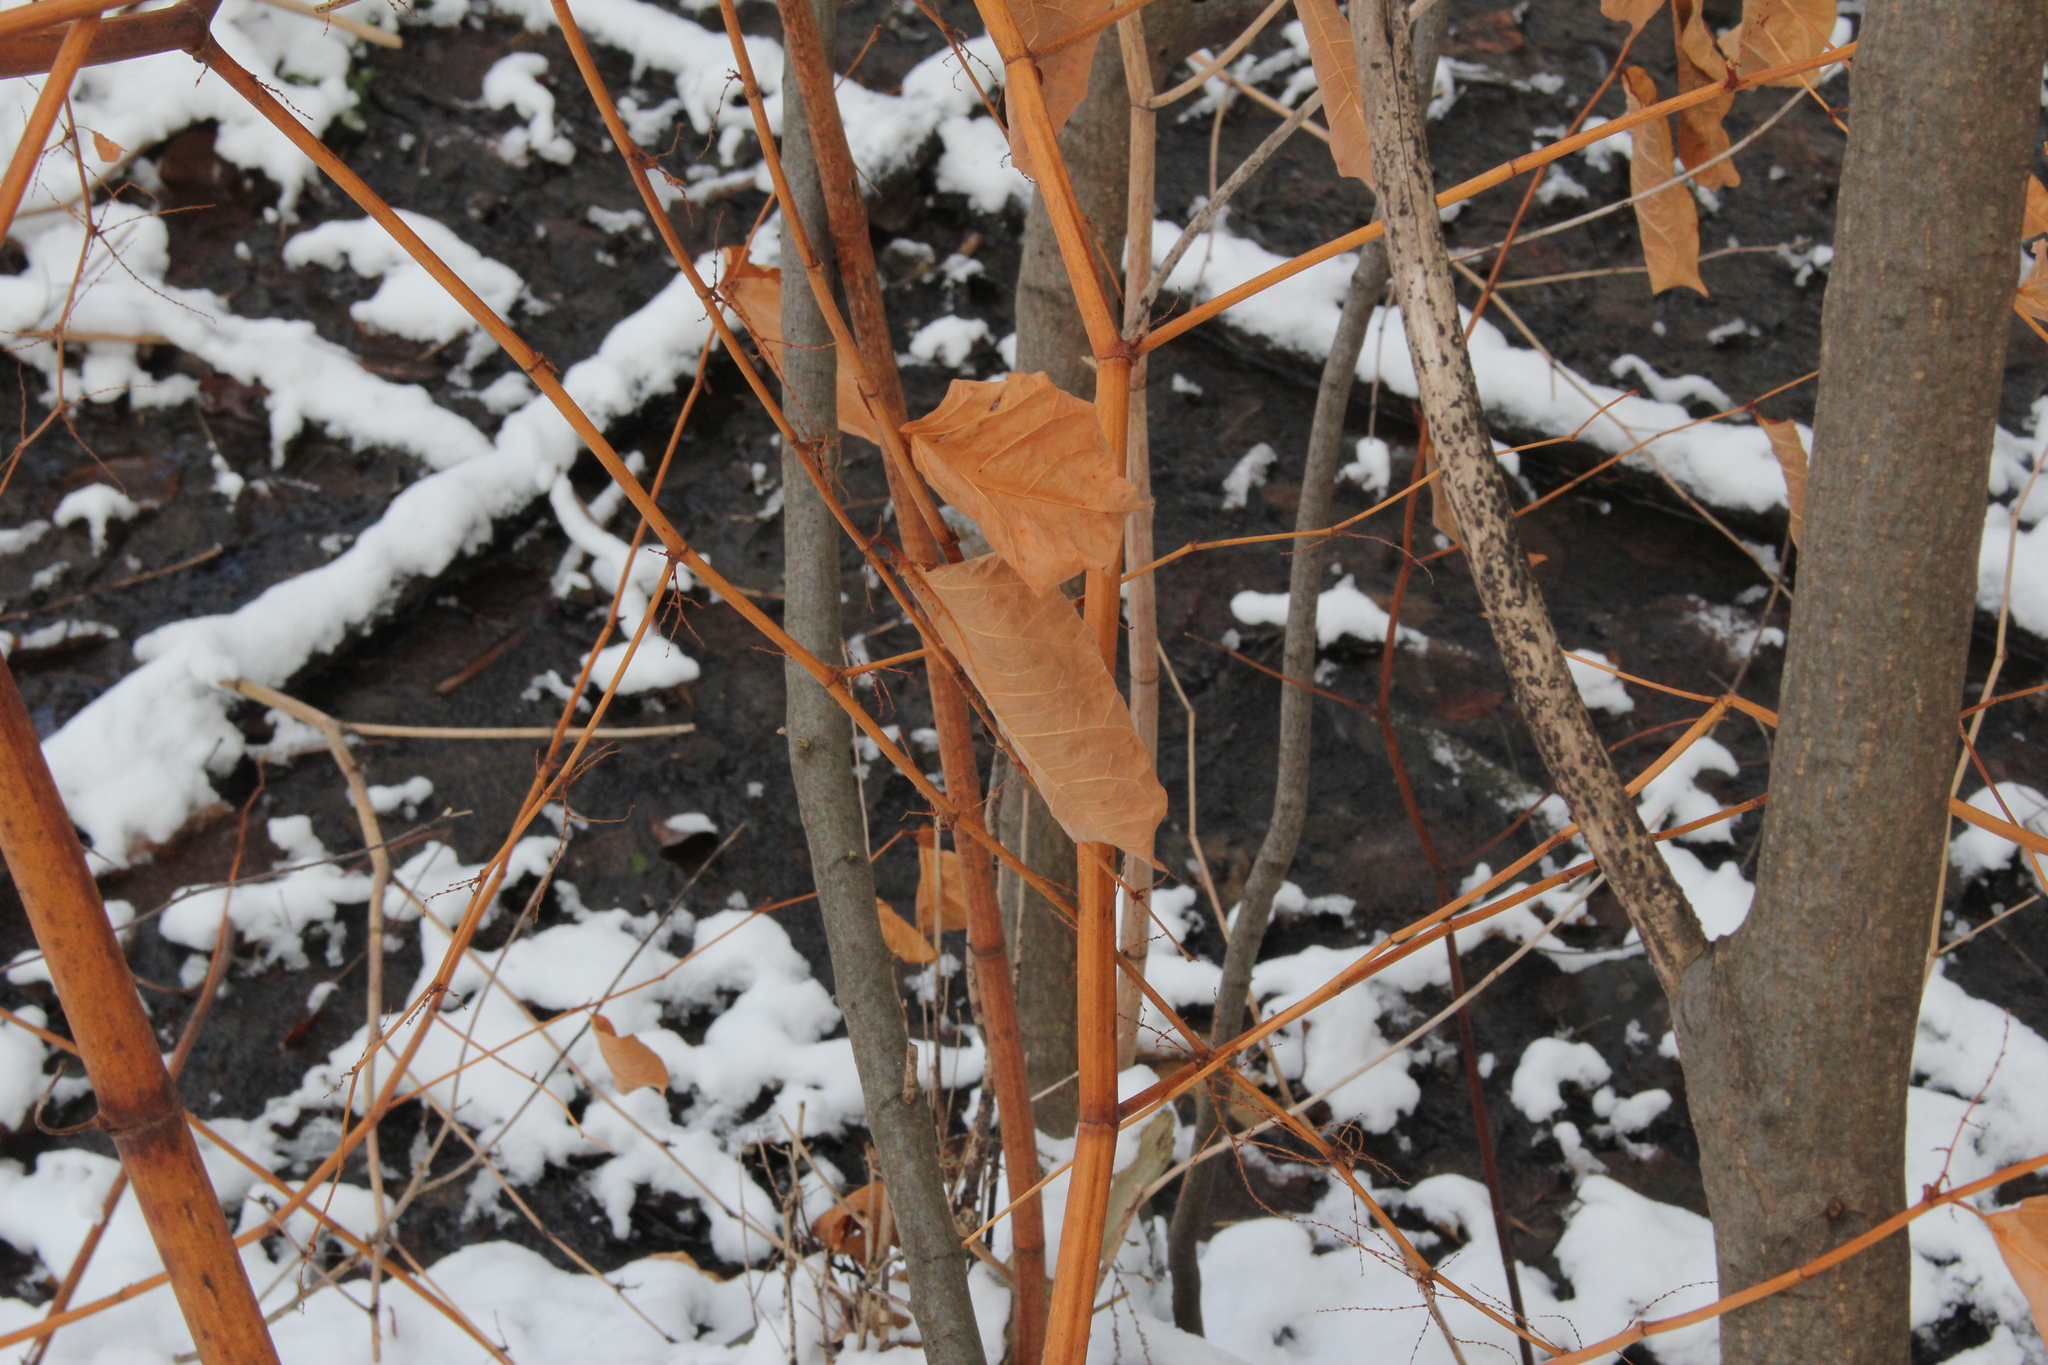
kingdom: Plantae
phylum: Tracheophyta
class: Magnoliopsida
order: Caryophyllales
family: Polygonaceae
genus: Reynoutria
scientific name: Reynoutria japonica
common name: Japanese knotweed
